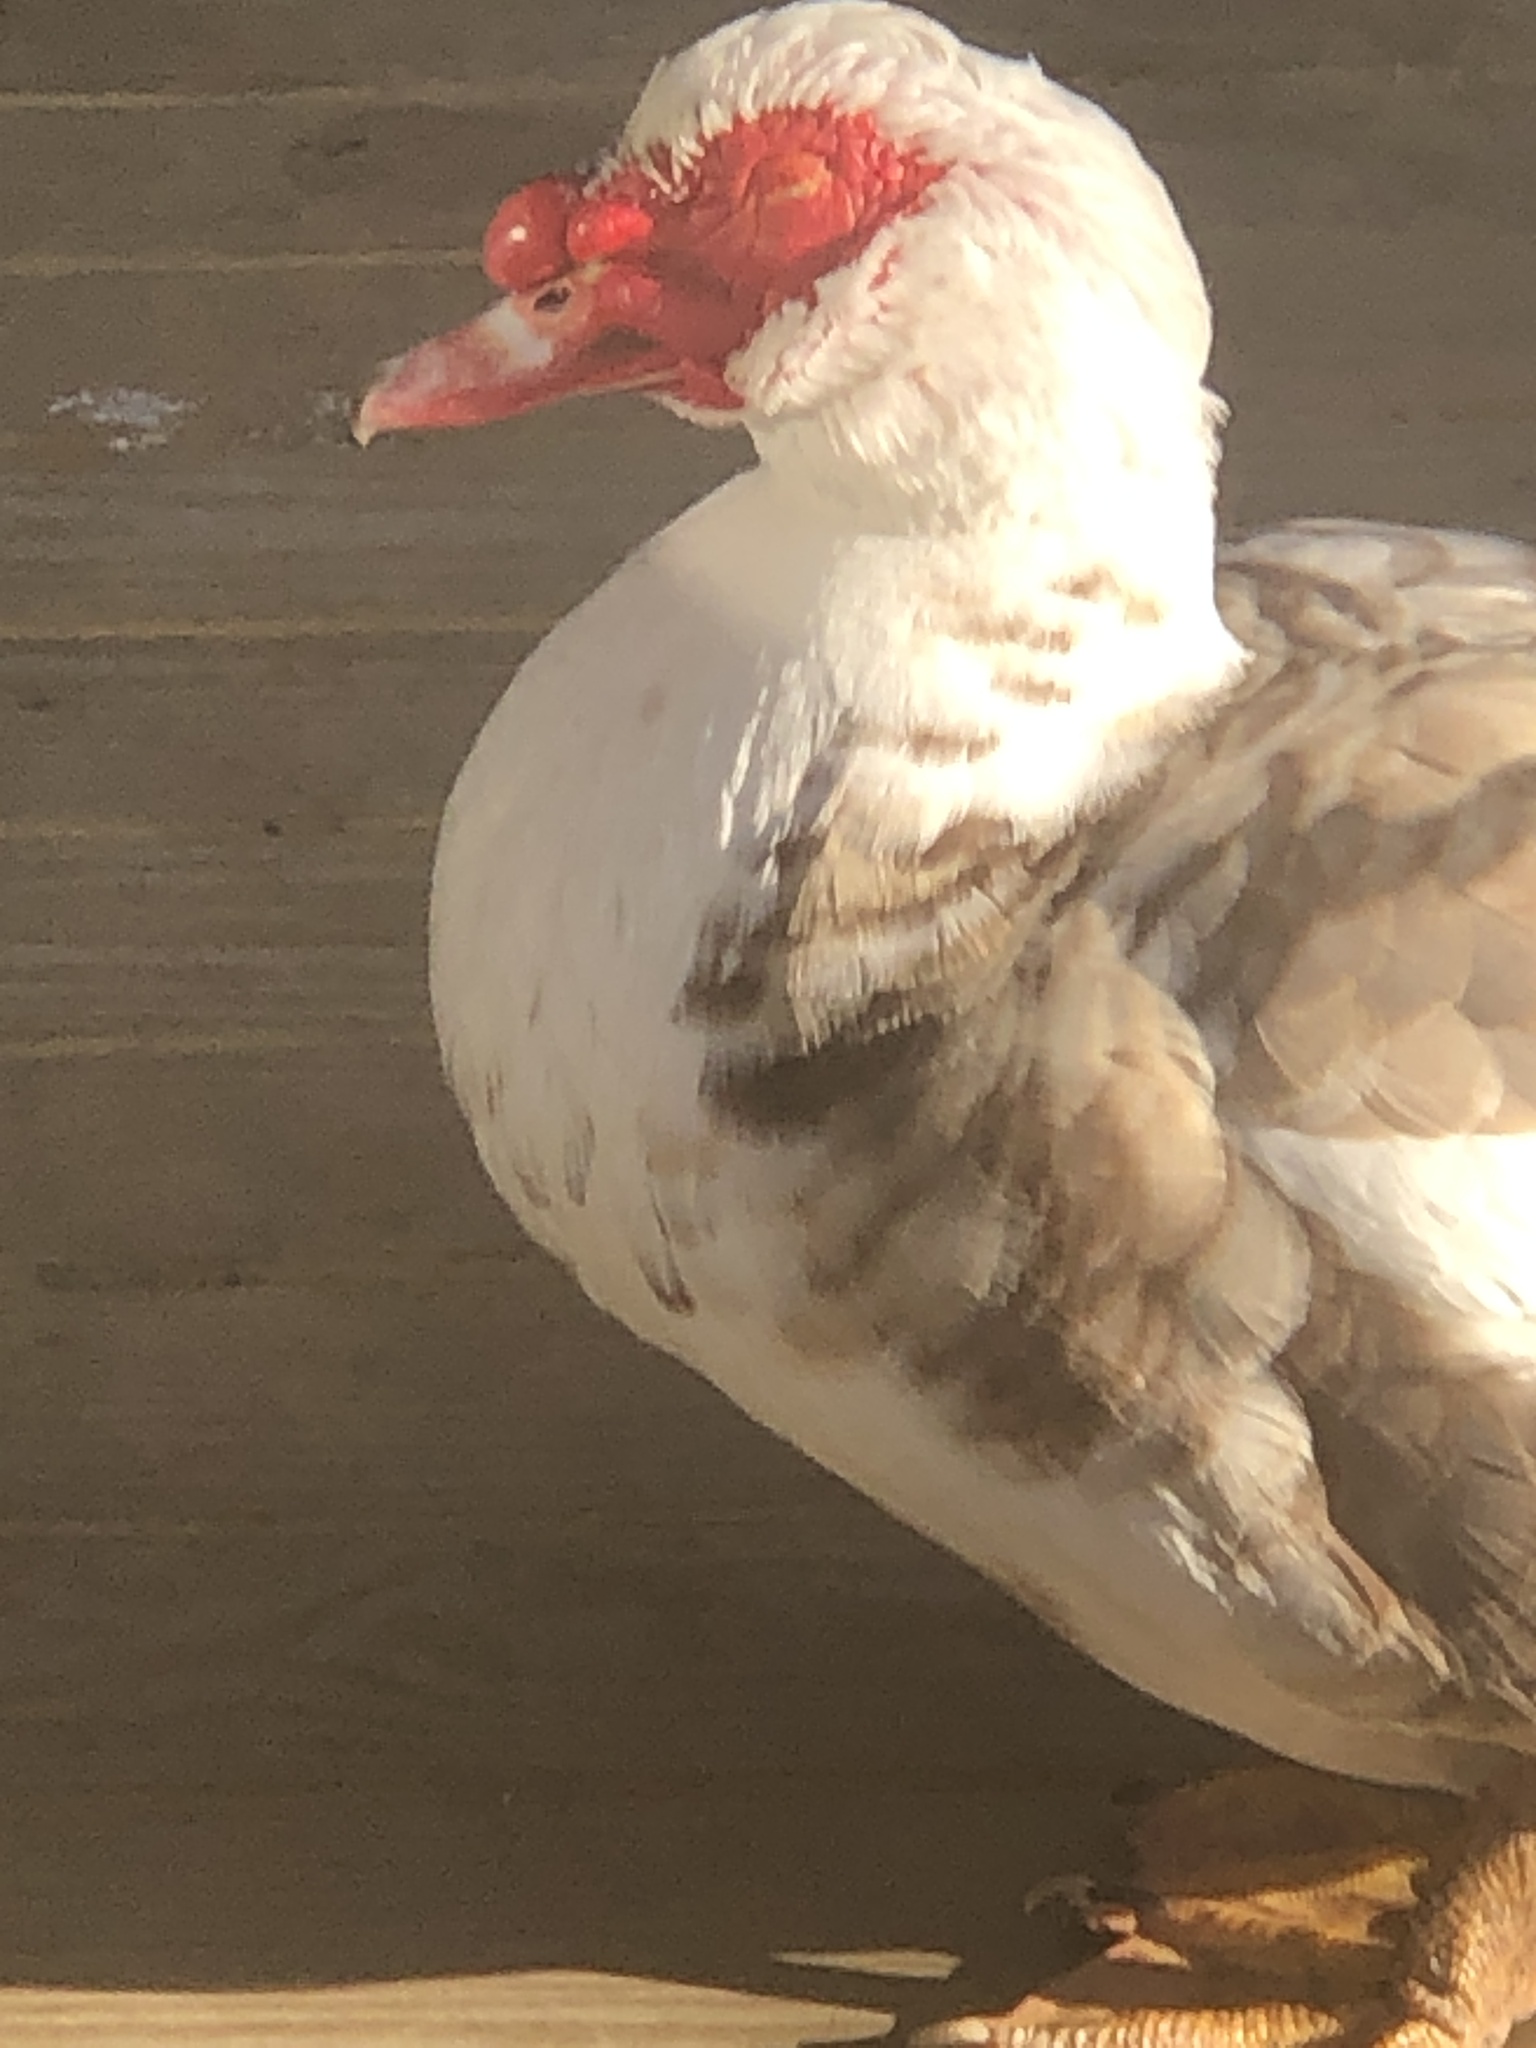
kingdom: Animalia
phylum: Chordata
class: Aves
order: Anseriformes
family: Anatidae
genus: Cairina
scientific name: Cairina moschata
